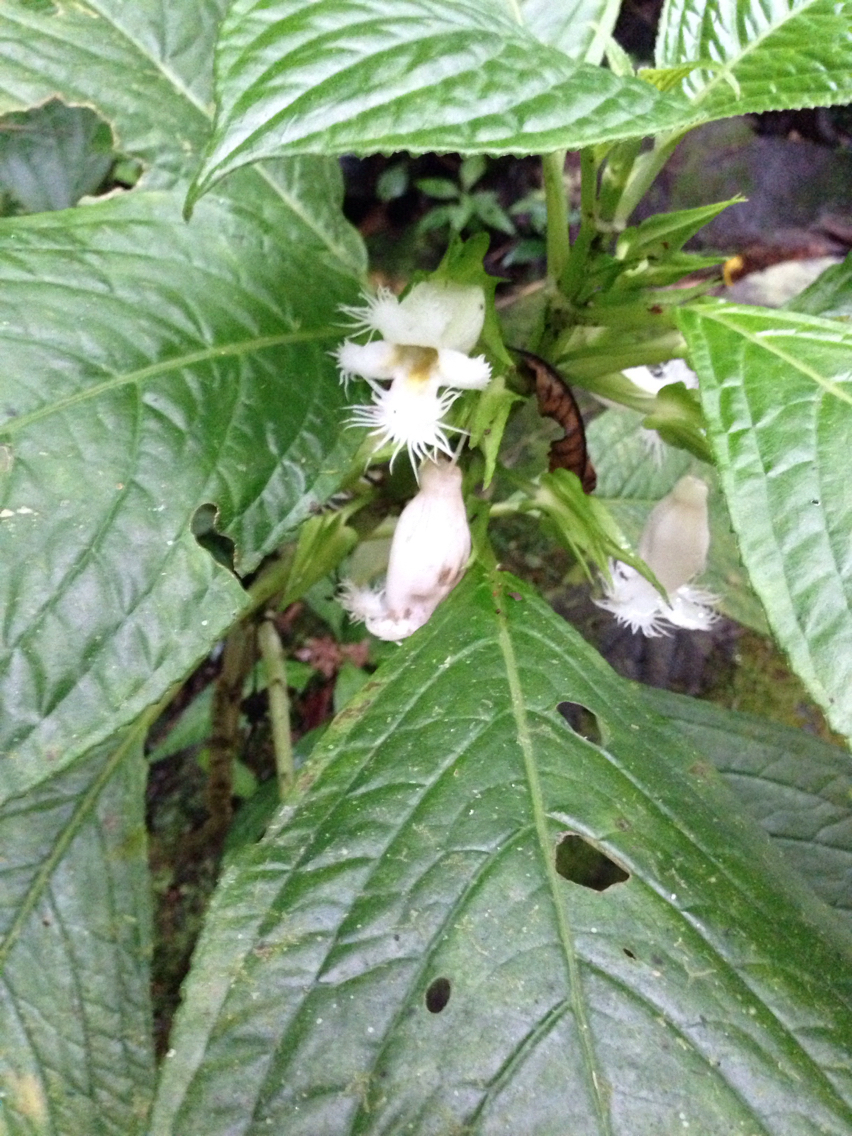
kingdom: Plantae
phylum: Tracheophyta
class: Magnoliopsida
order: Lamiales
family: Gesneriaceae
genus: Drymonia
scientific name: Drymonia lanceolata
